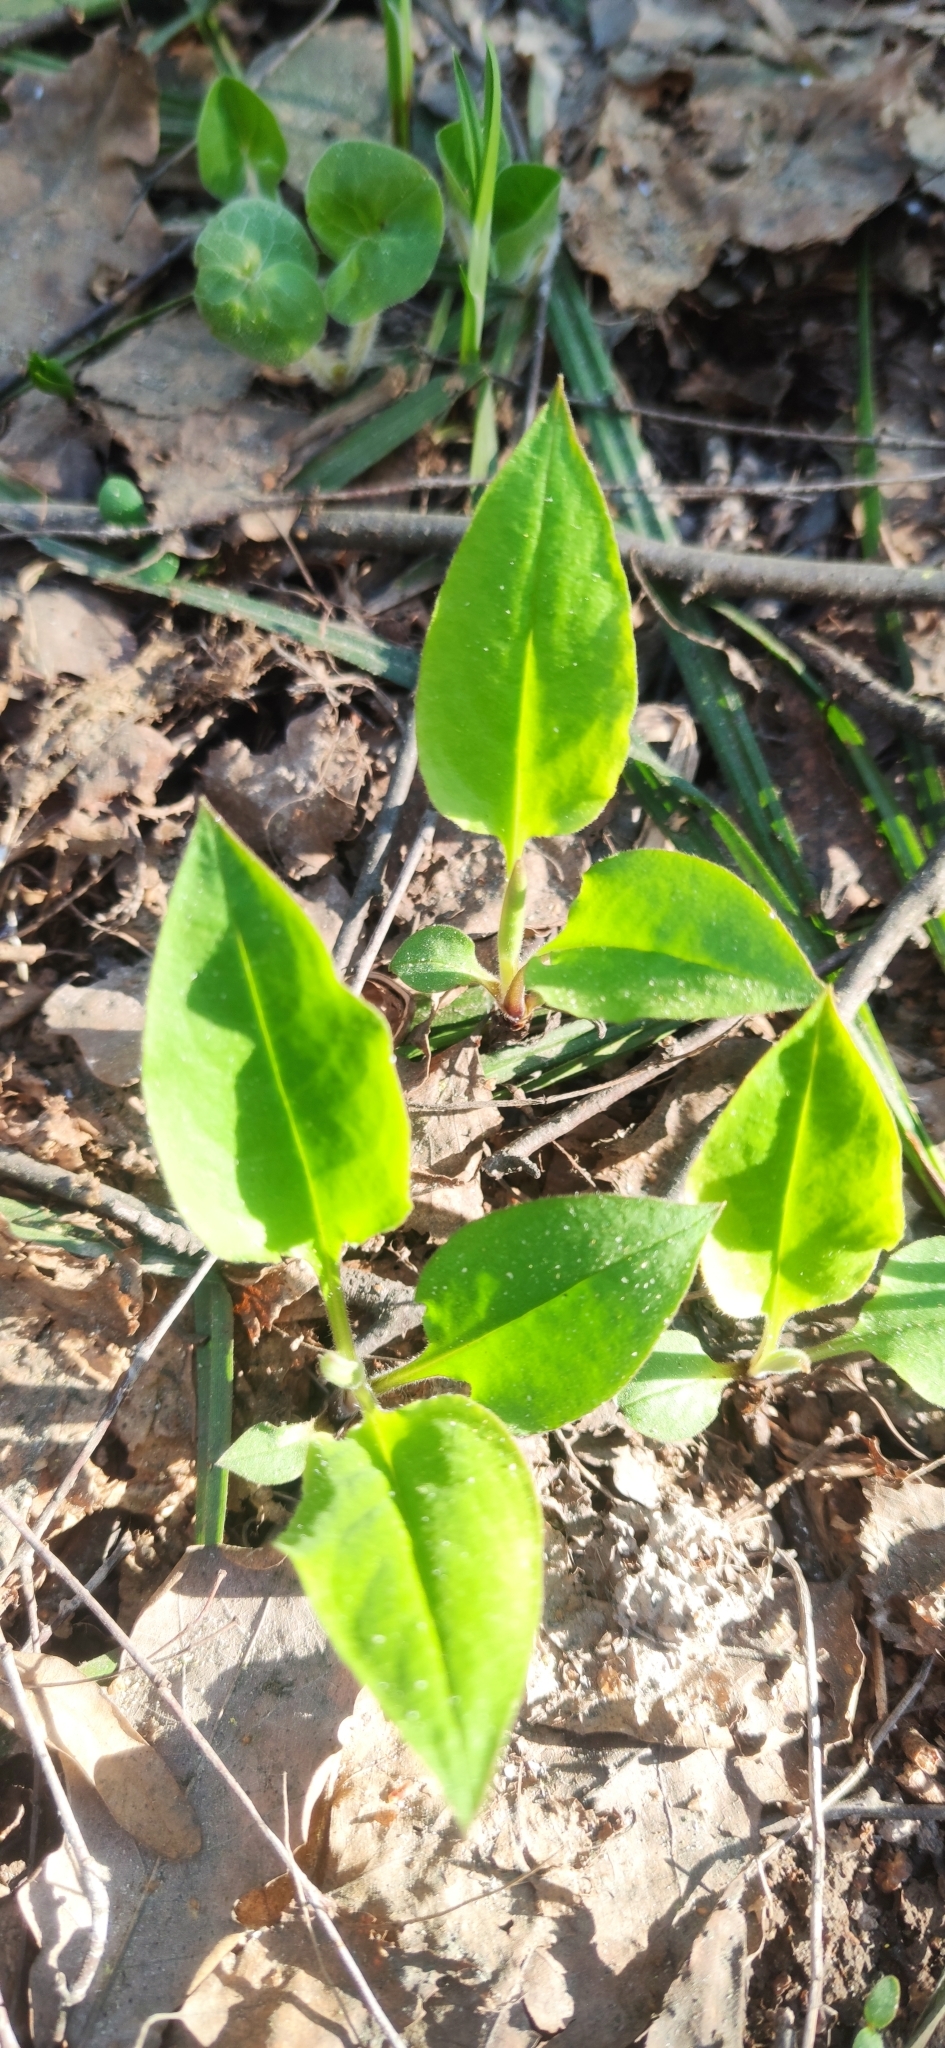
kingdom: Plantae
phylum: Tracheophyta
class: Magnoliopsida
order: Boraginales
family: Boraginaceae
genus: Pulmonaria
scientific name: Pulmonaria obscura
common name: Suffolk lungwort
